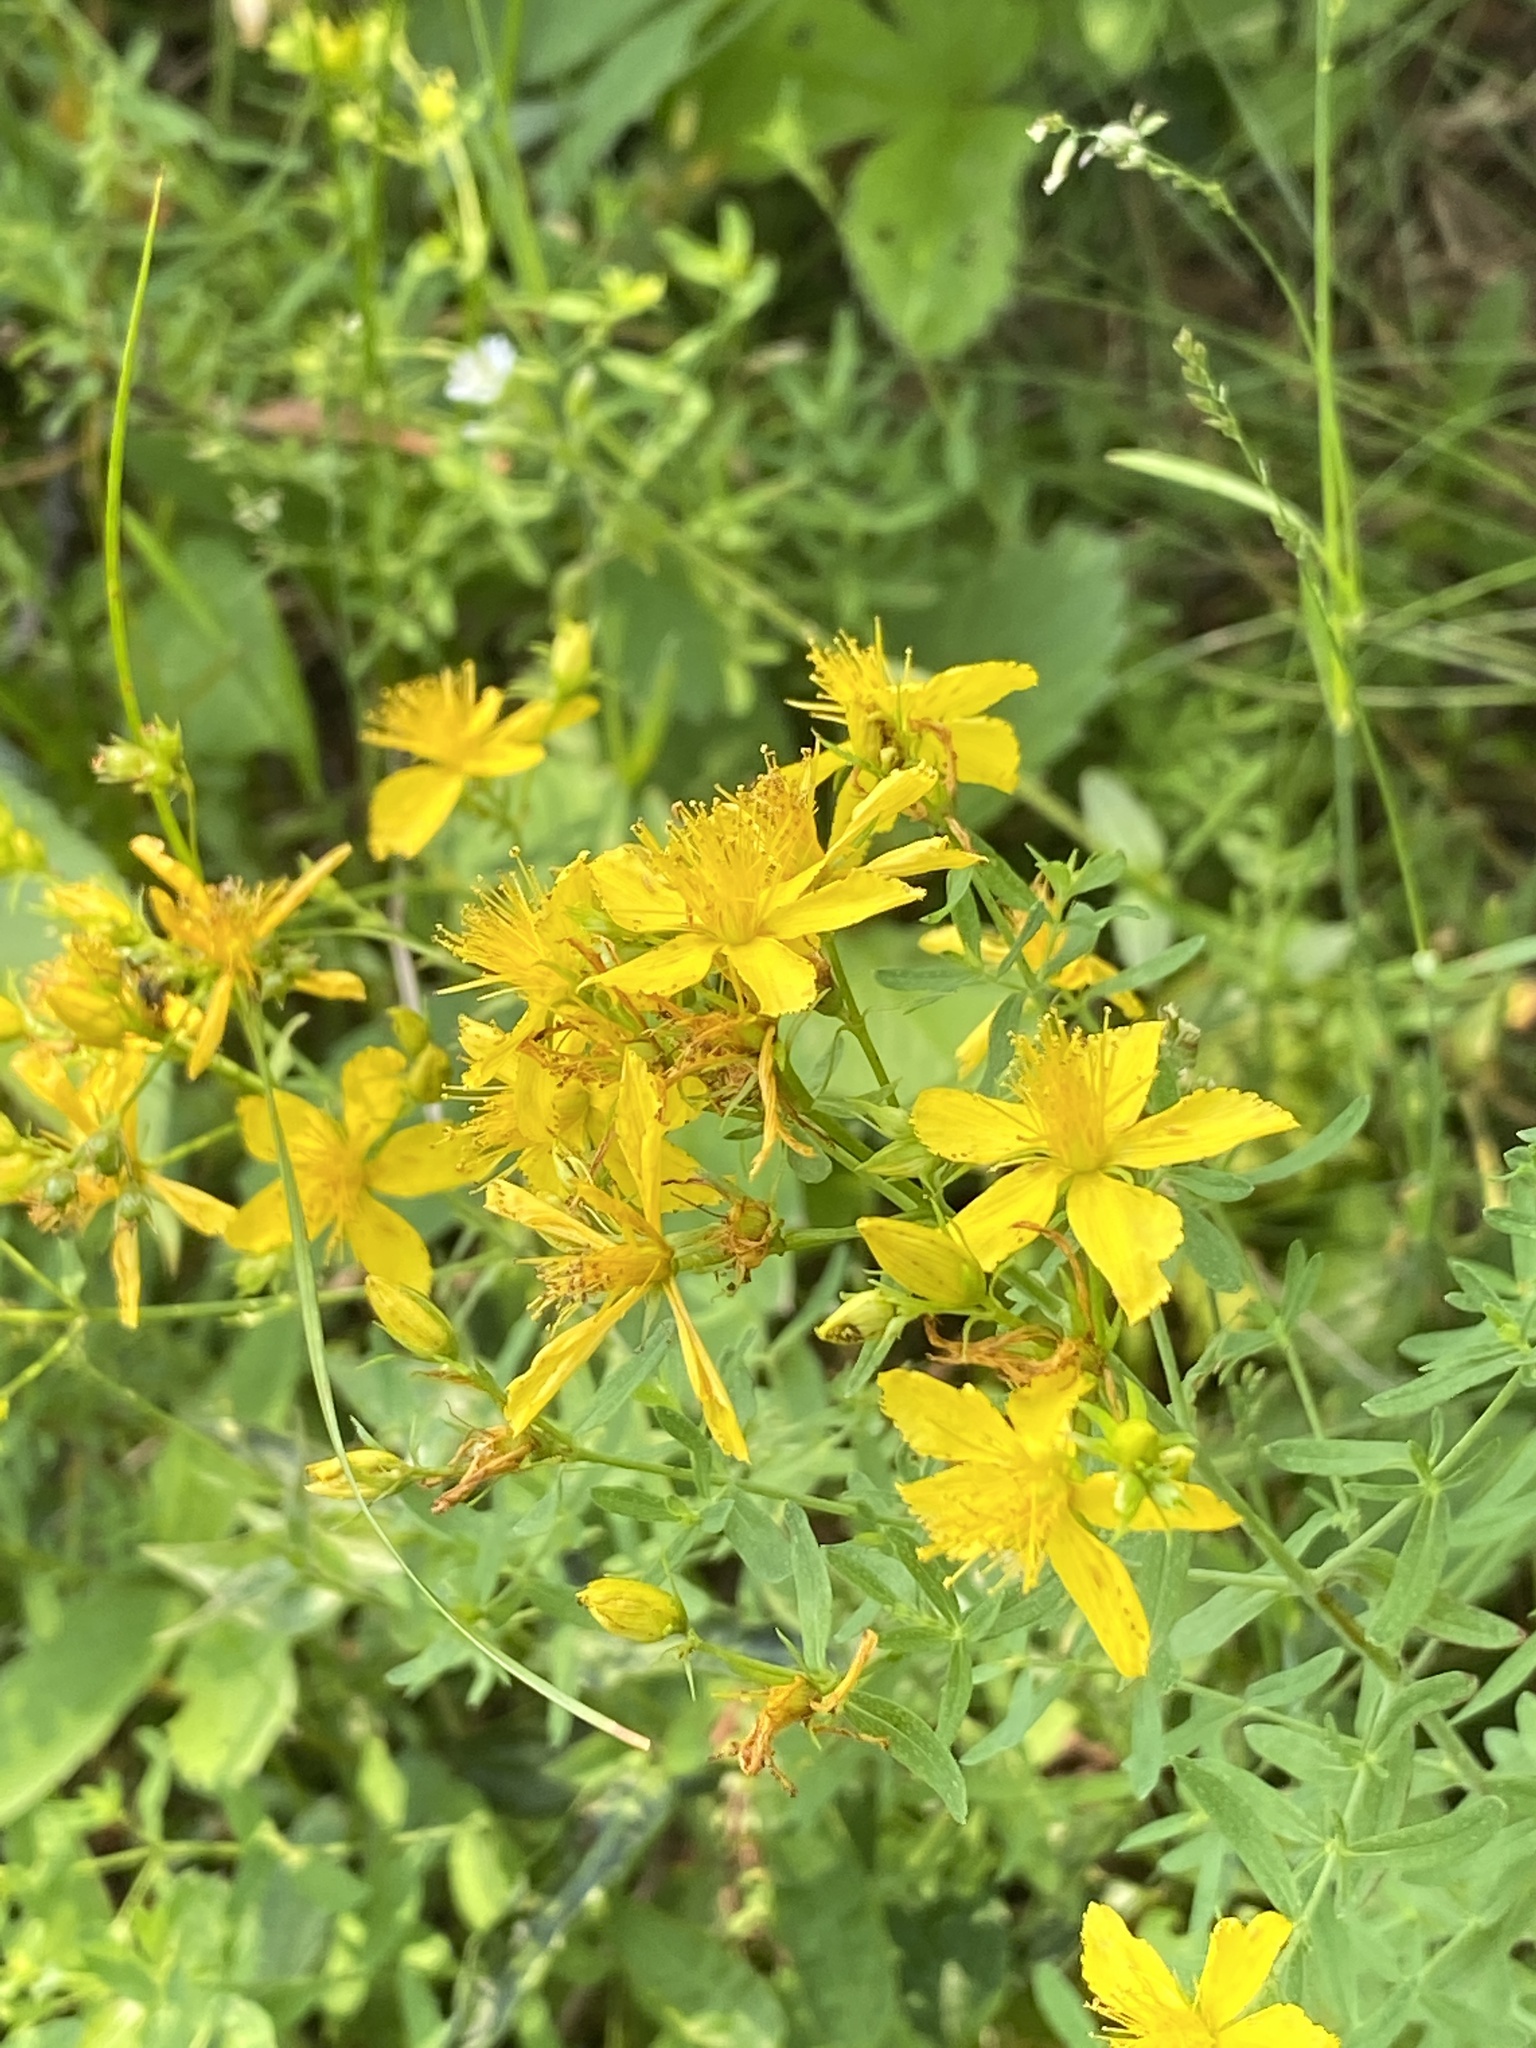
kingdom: Plantae
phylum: Tracheophyta
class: Magnoliopsida
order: Malpighiales
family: Hypericaceae
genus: Hypericum
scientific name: Hypericum perforatum
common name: Common st. johnswort
